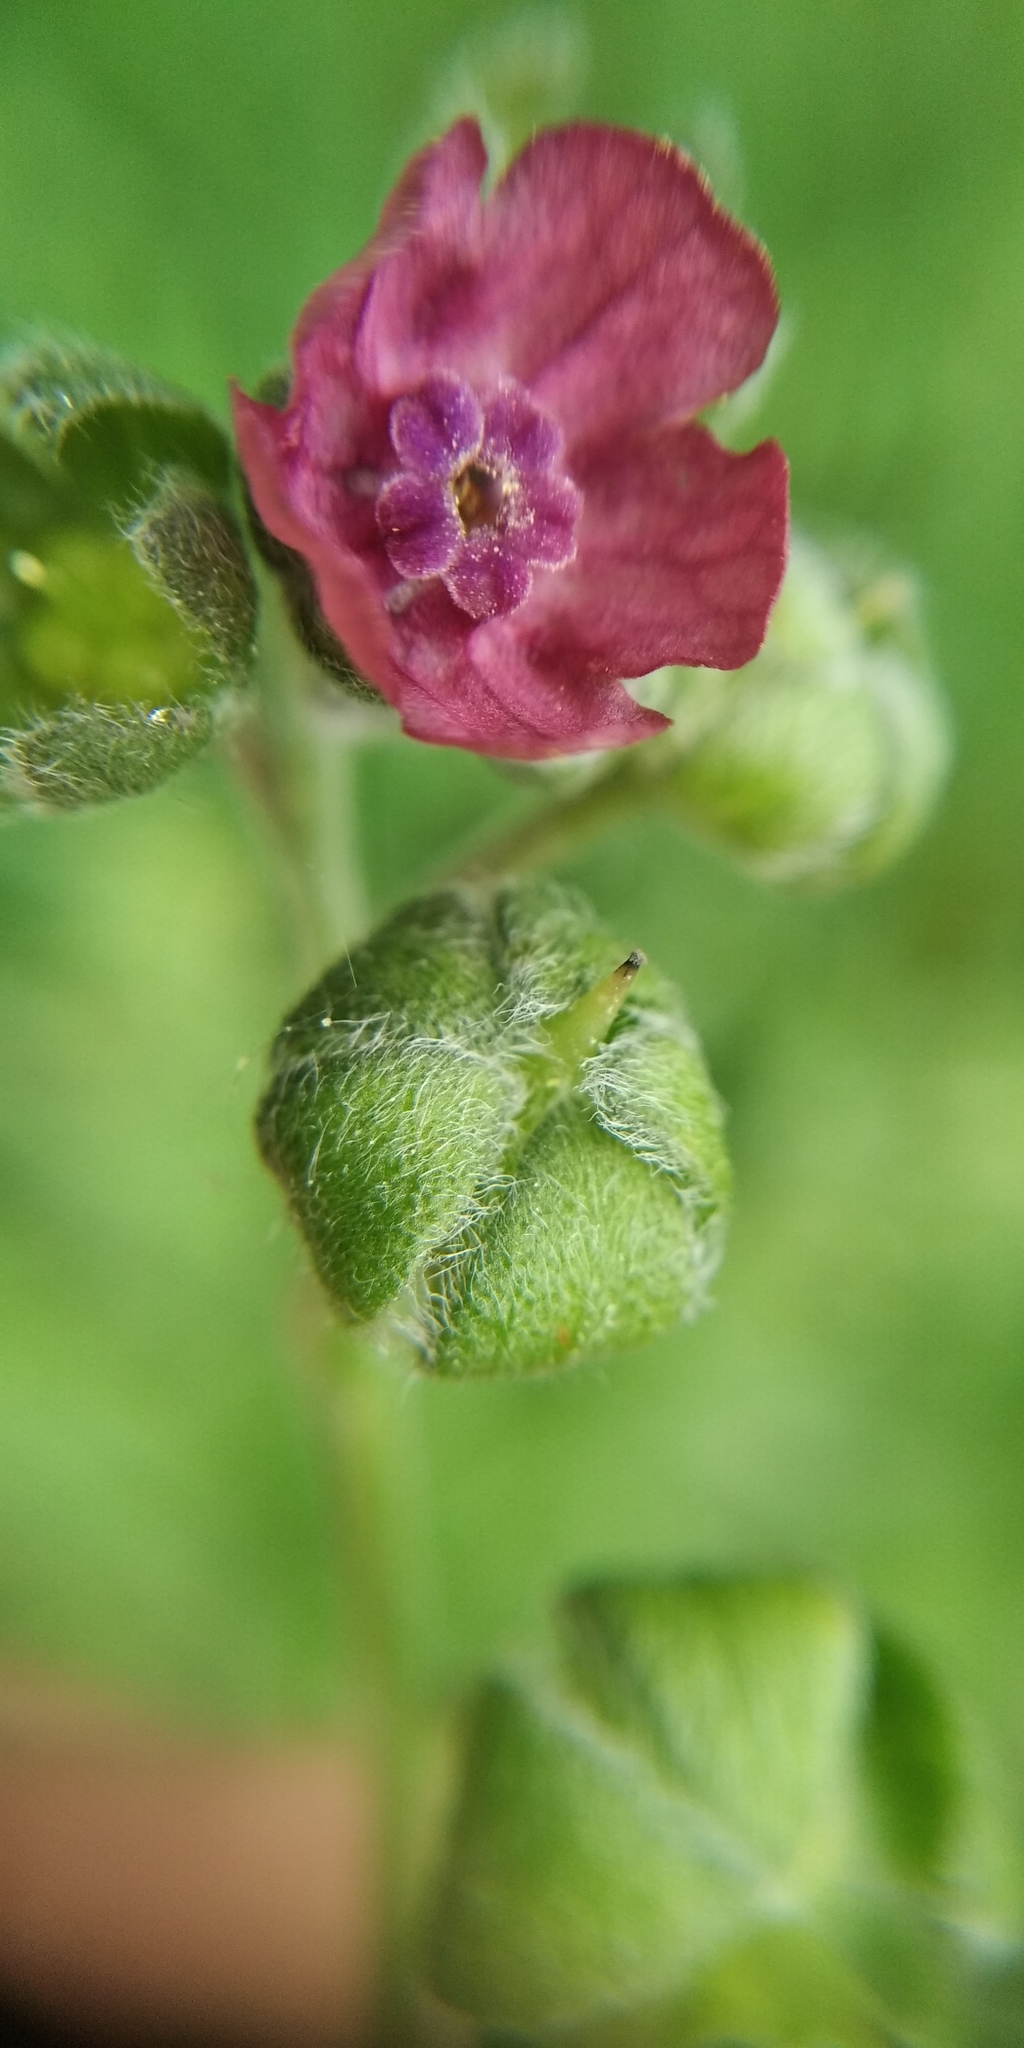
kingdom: Plantae
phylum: Tracheophyta
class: Magnoliopsida
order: Boraginales
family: Boraginaceae
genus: Cynoglossum
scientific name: Cynoglossum officinale
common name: Hound's-tongue
